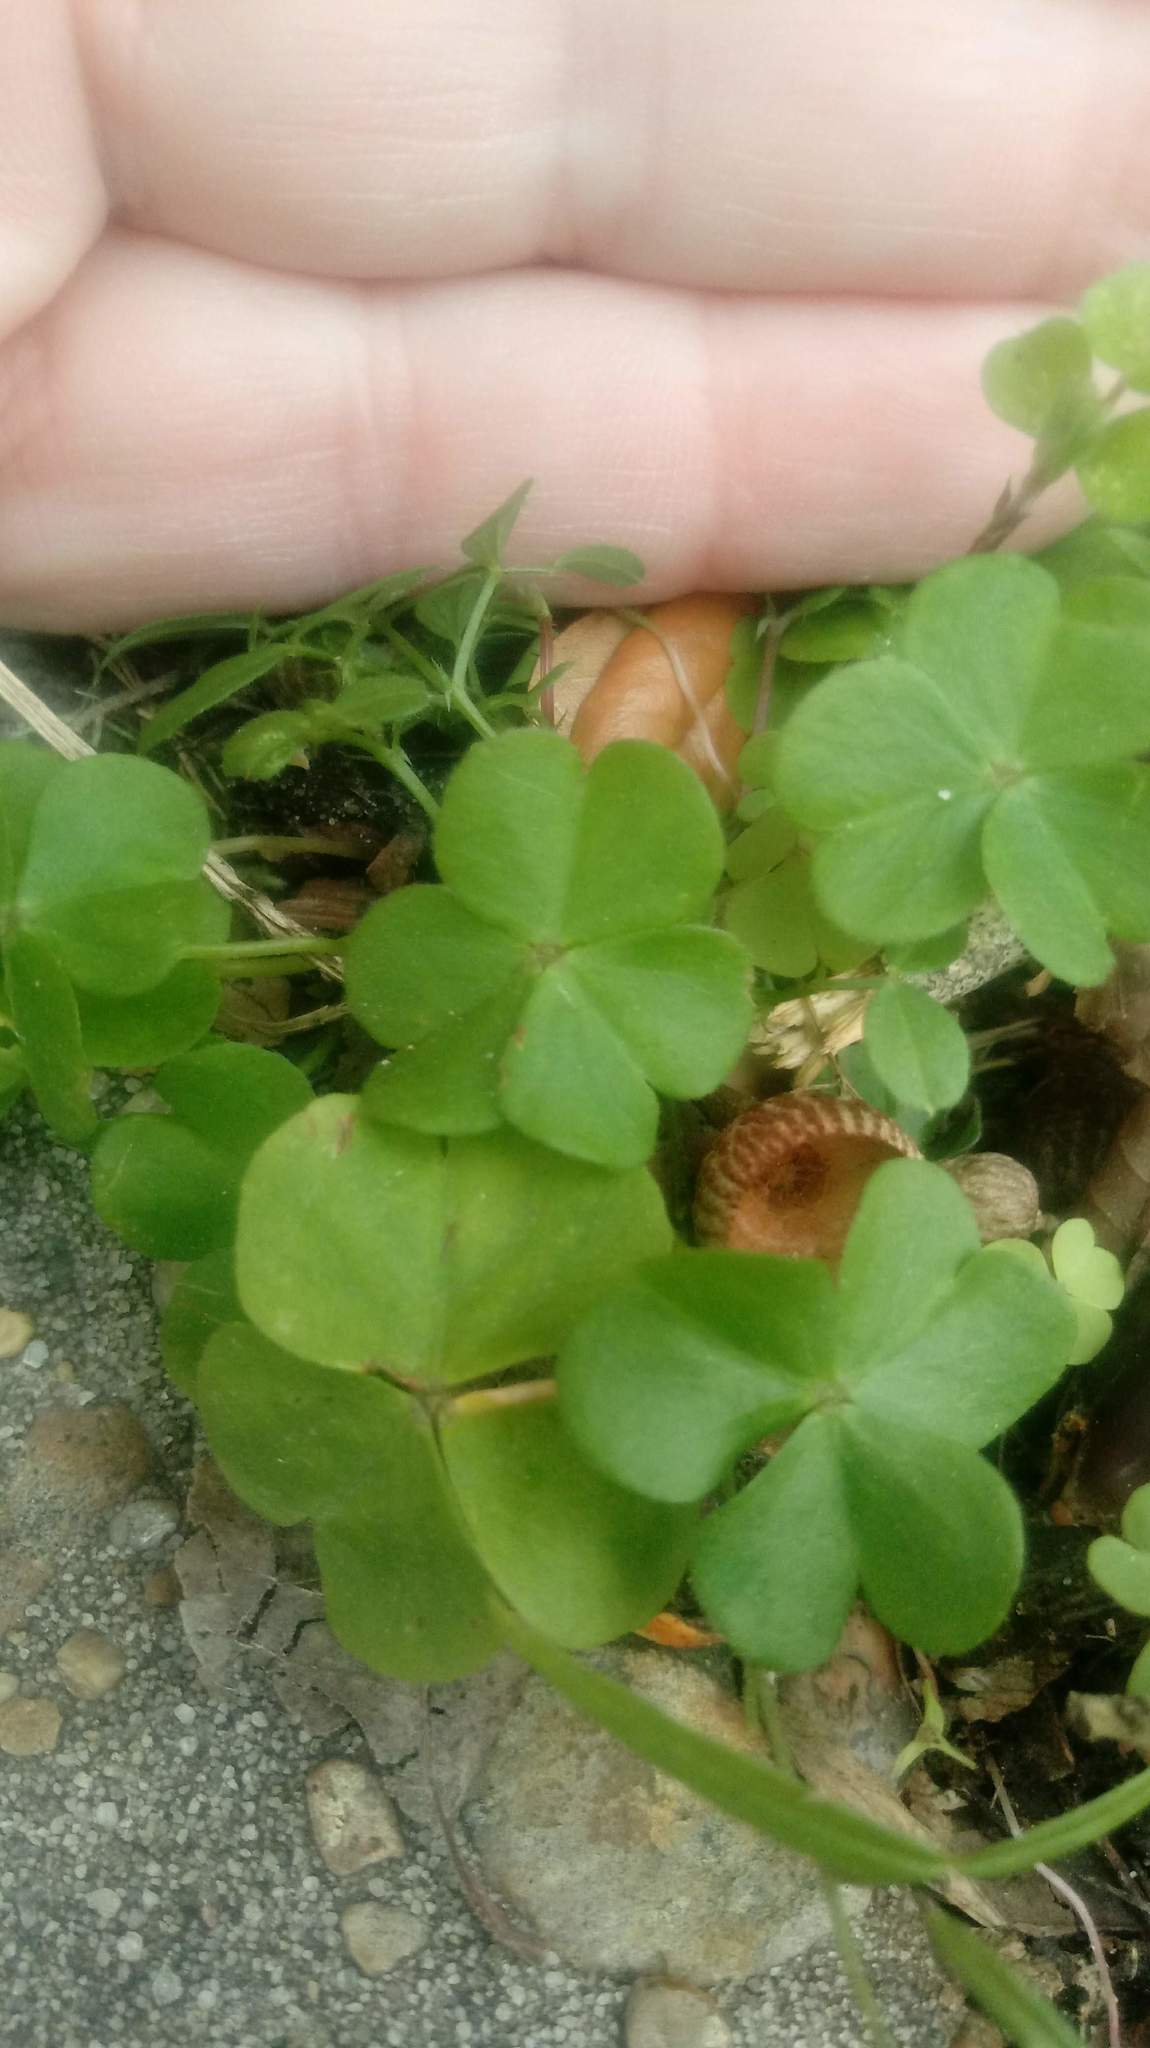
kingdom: Plantae
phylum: Tracheophyta
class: Magnoliopsida
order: Oxalidales
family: Oxalidaceae
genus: Oxalis
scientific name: Oxalis debilis
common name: Large-flowered pink-sorrel
